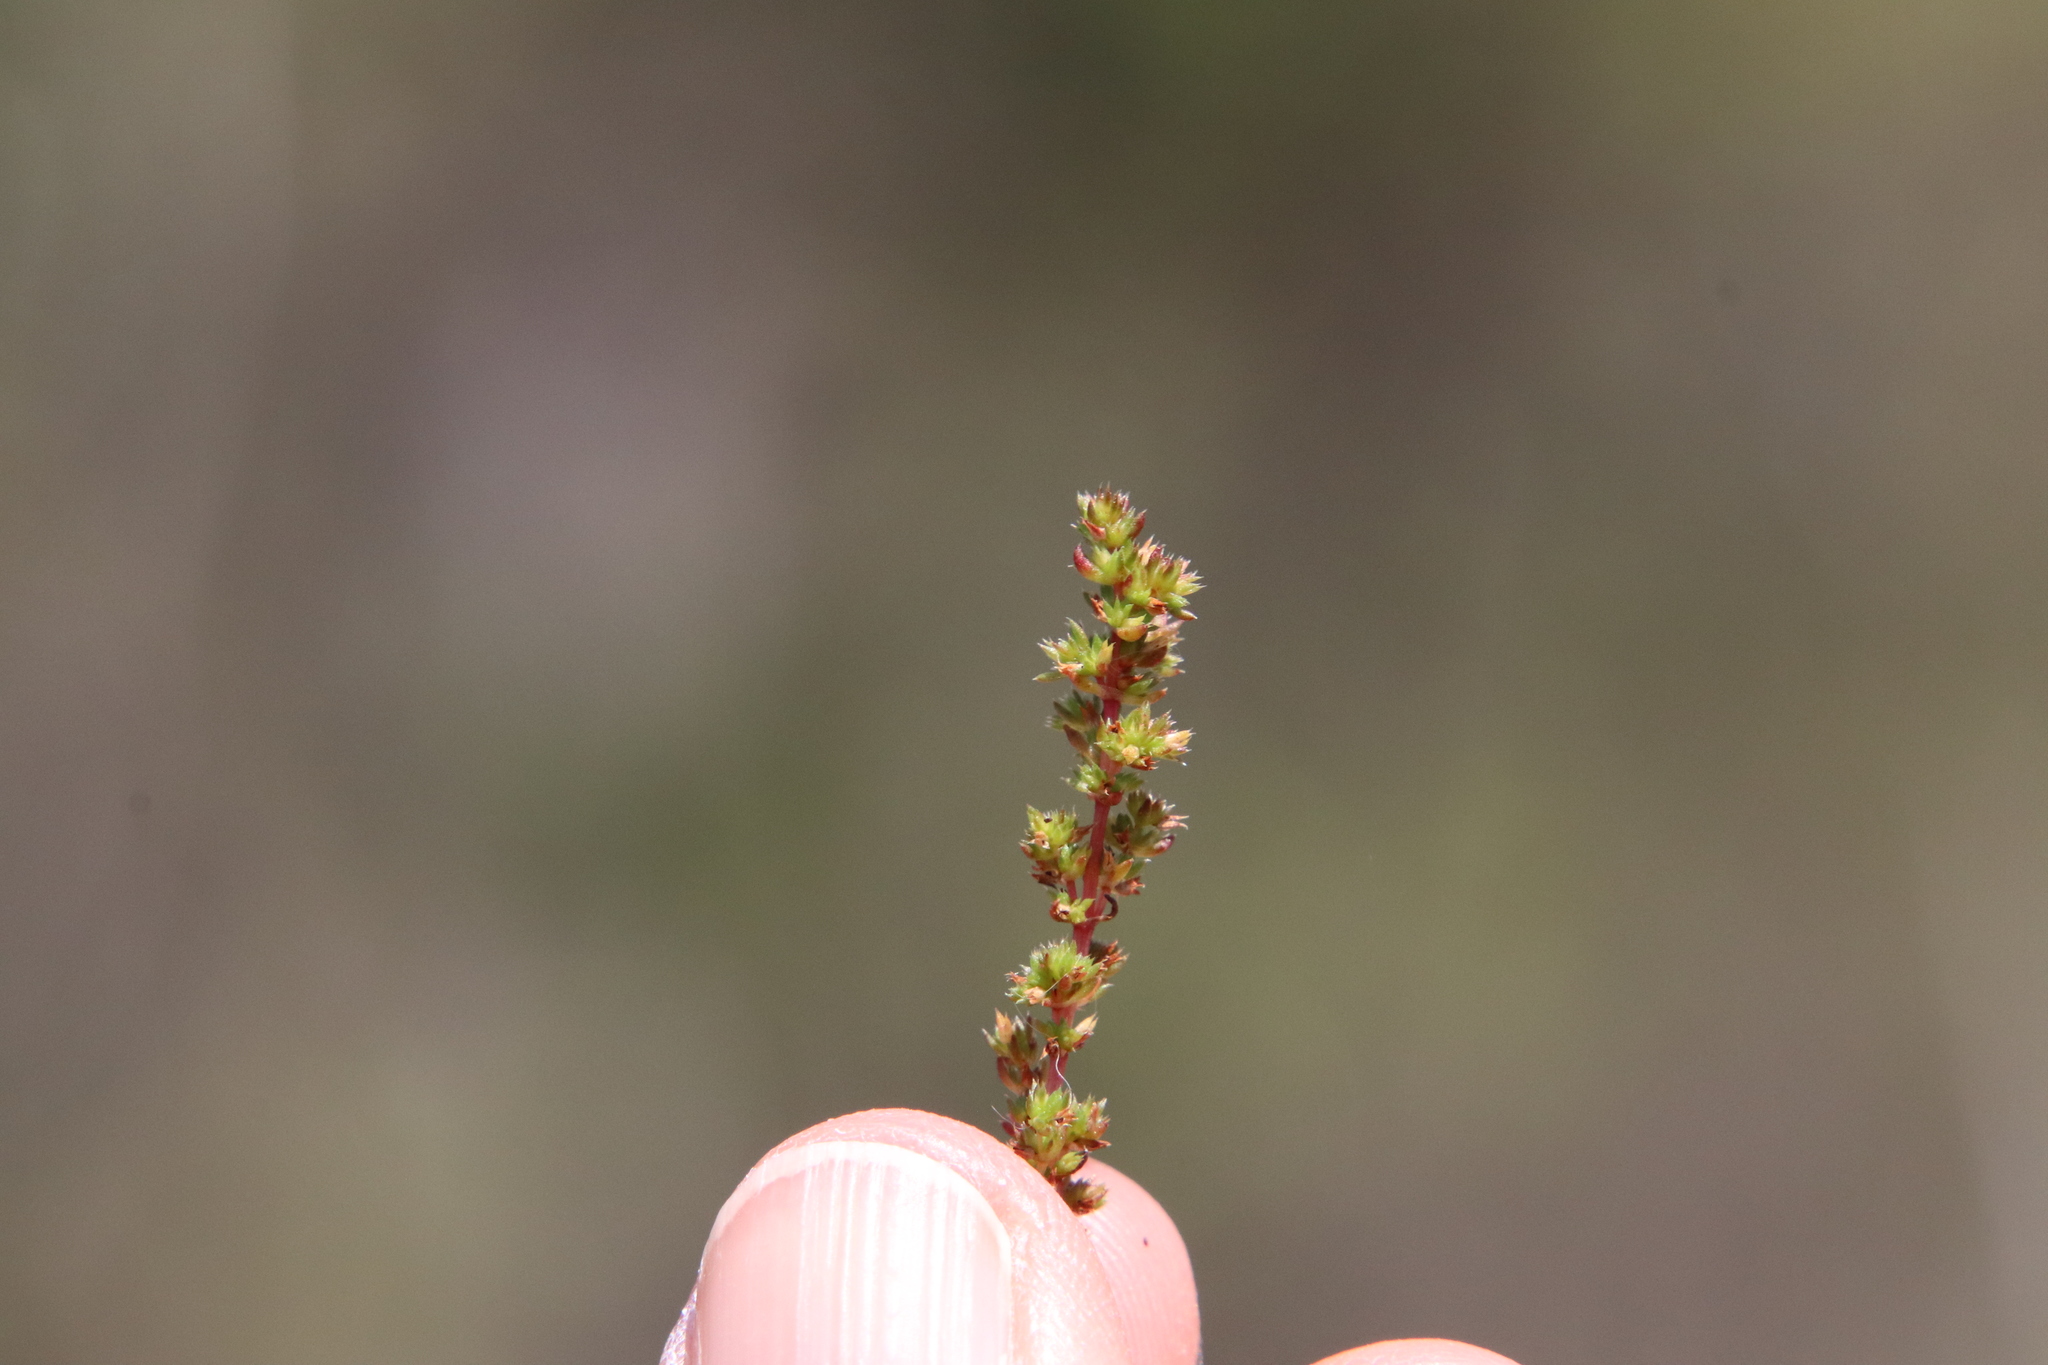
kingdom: Plantae
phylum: Tracheophyta
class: Magnoliopsida
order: Saxifragales
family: Crassulaceae
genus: Crassula
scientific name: Crassula tillaea
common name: Mossy stonecrop
